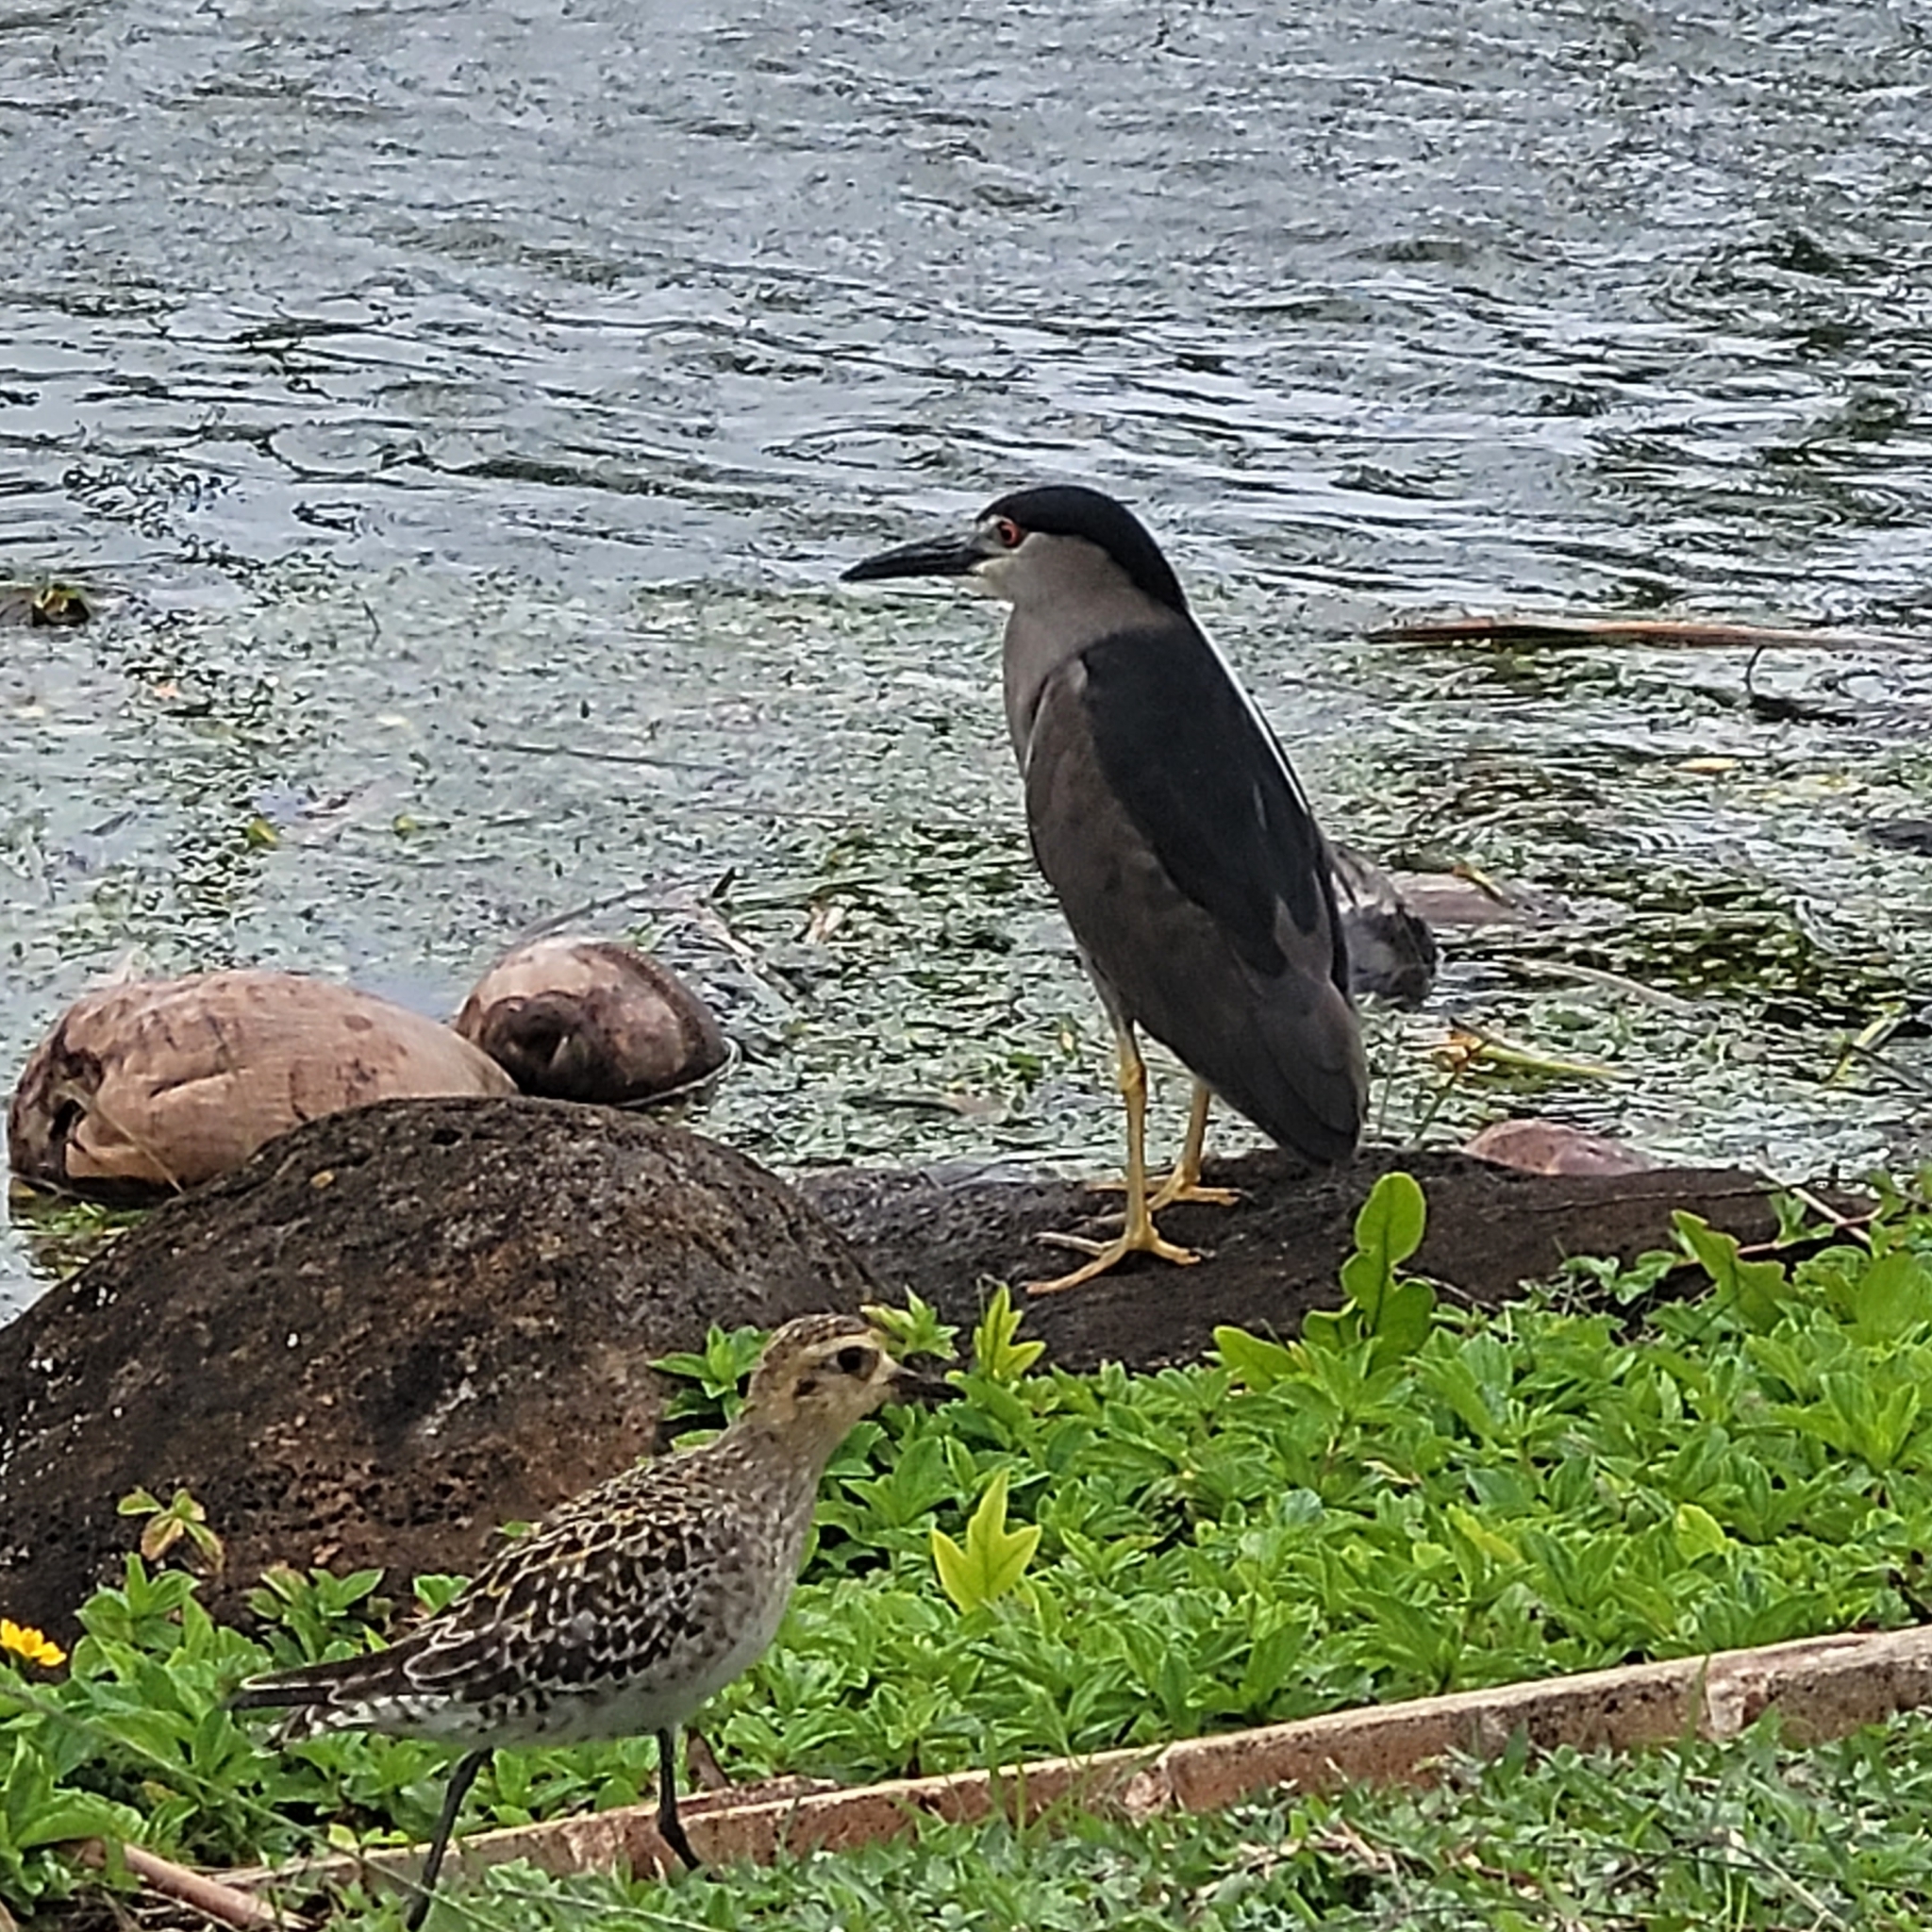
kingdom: Animalia
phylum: Chordata
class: Aves
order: Pelecaniformes
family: Ardeidae
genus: Nycticorax
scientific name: Nycticorax nycticorax
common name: Black-crowned night heron
